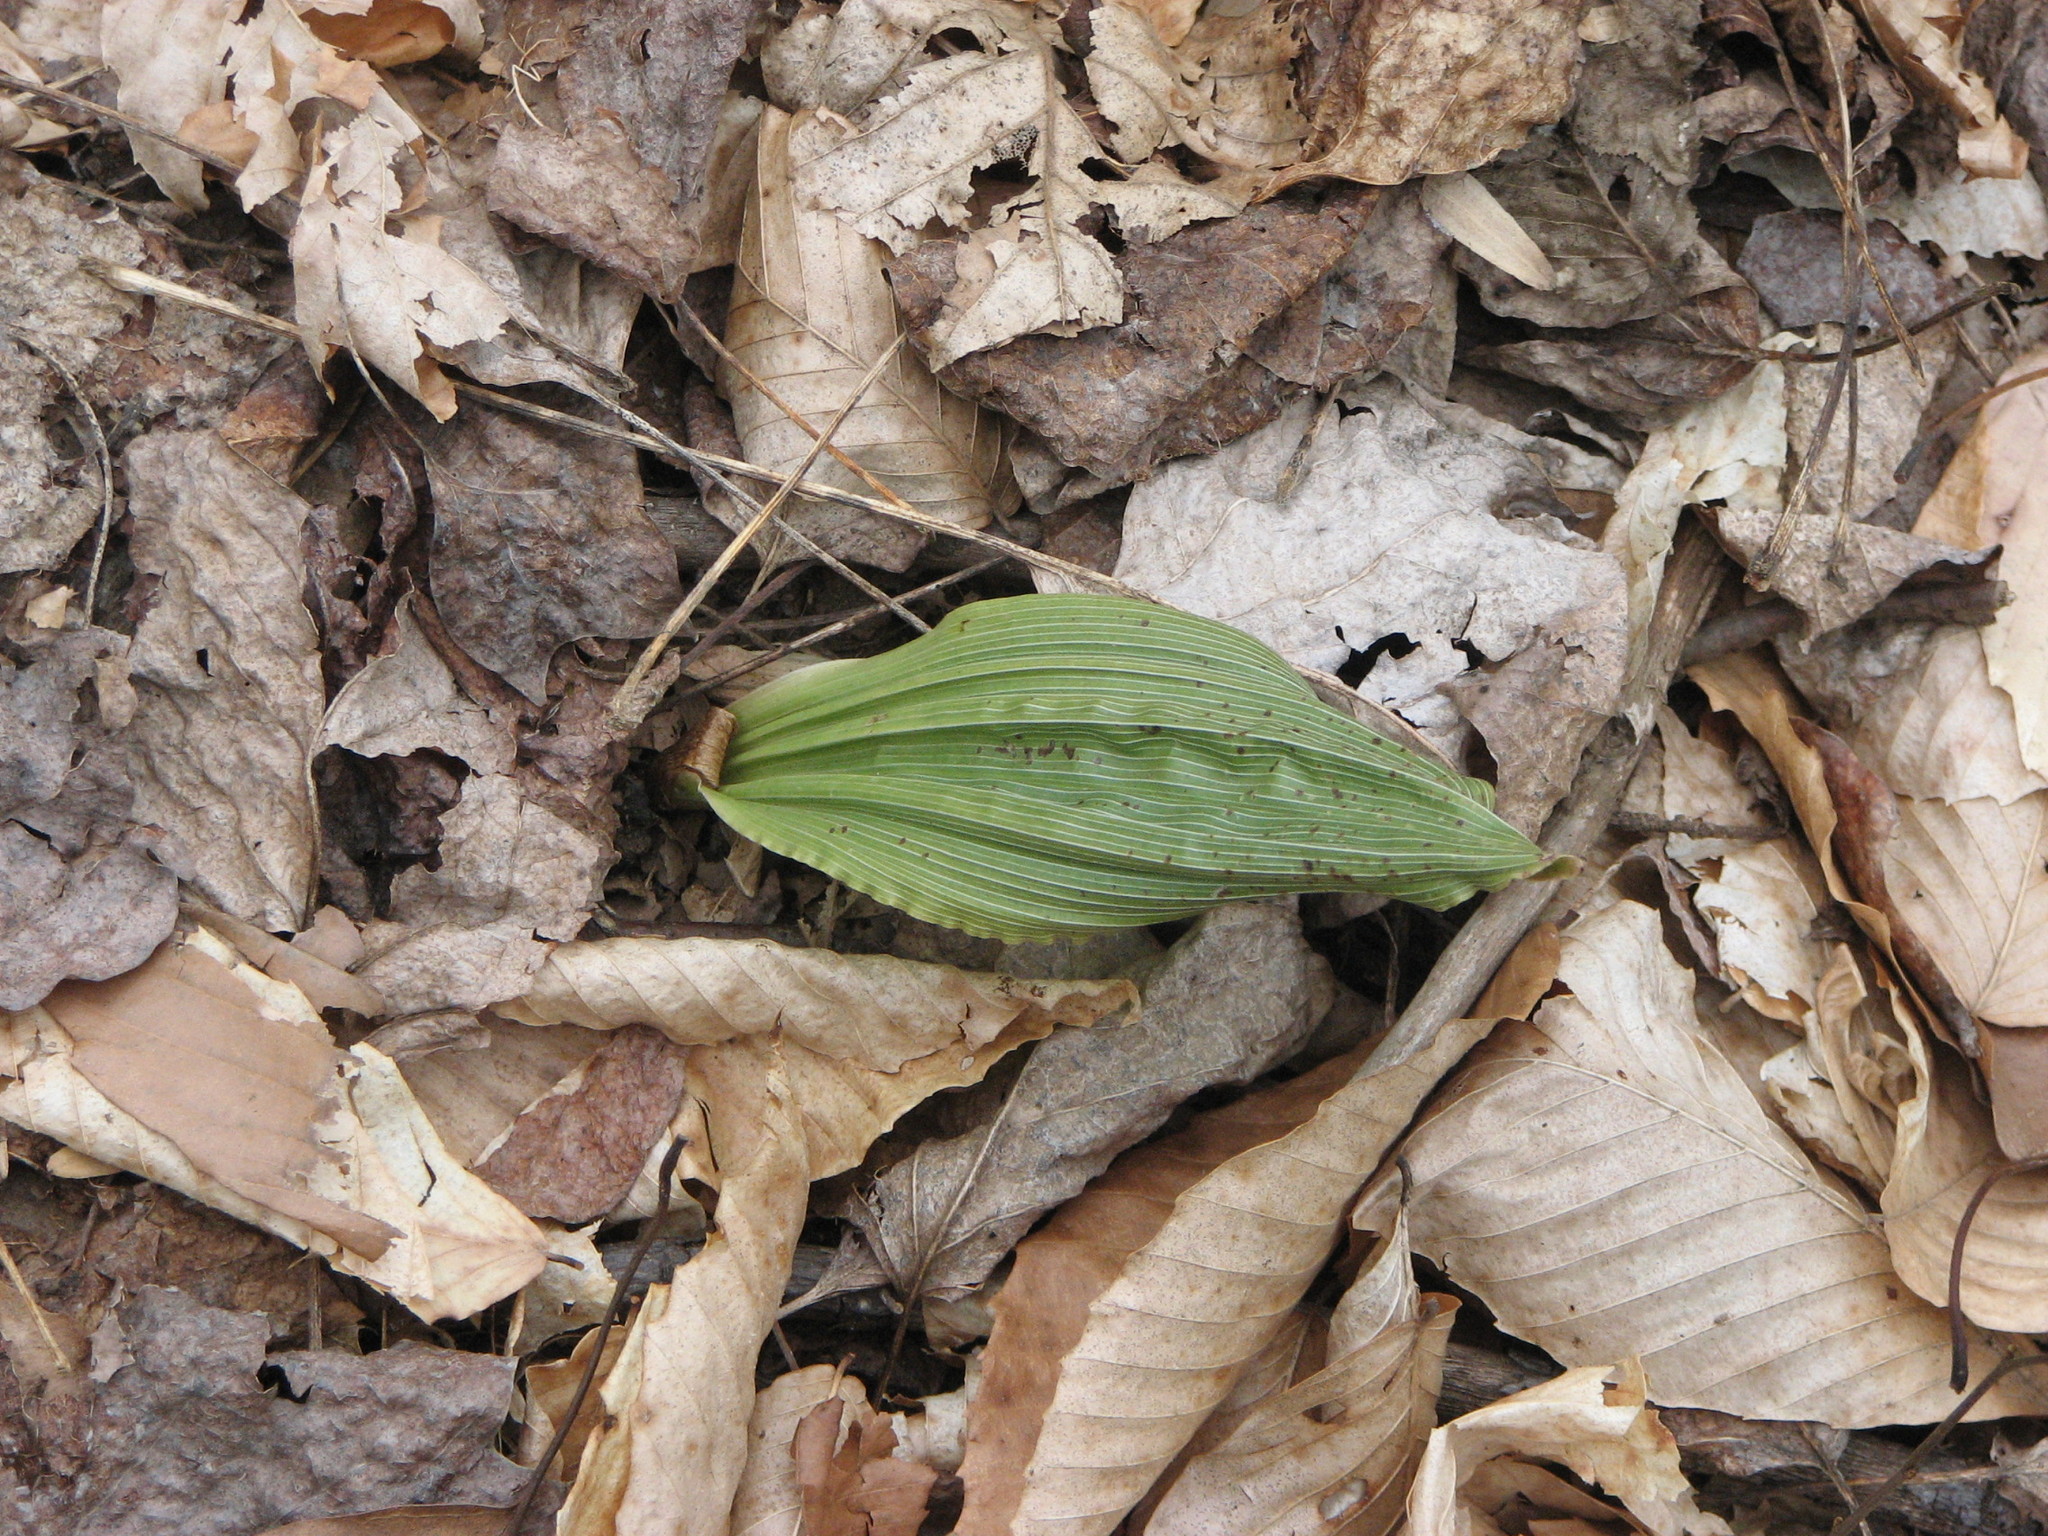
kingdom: Plantae
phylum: Tracheophyta
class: Liliopsida
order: Asparagales
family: Orchidaceae
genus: Aplectrum
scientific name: Aplectrum hyemale
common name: Adam-and-eve
